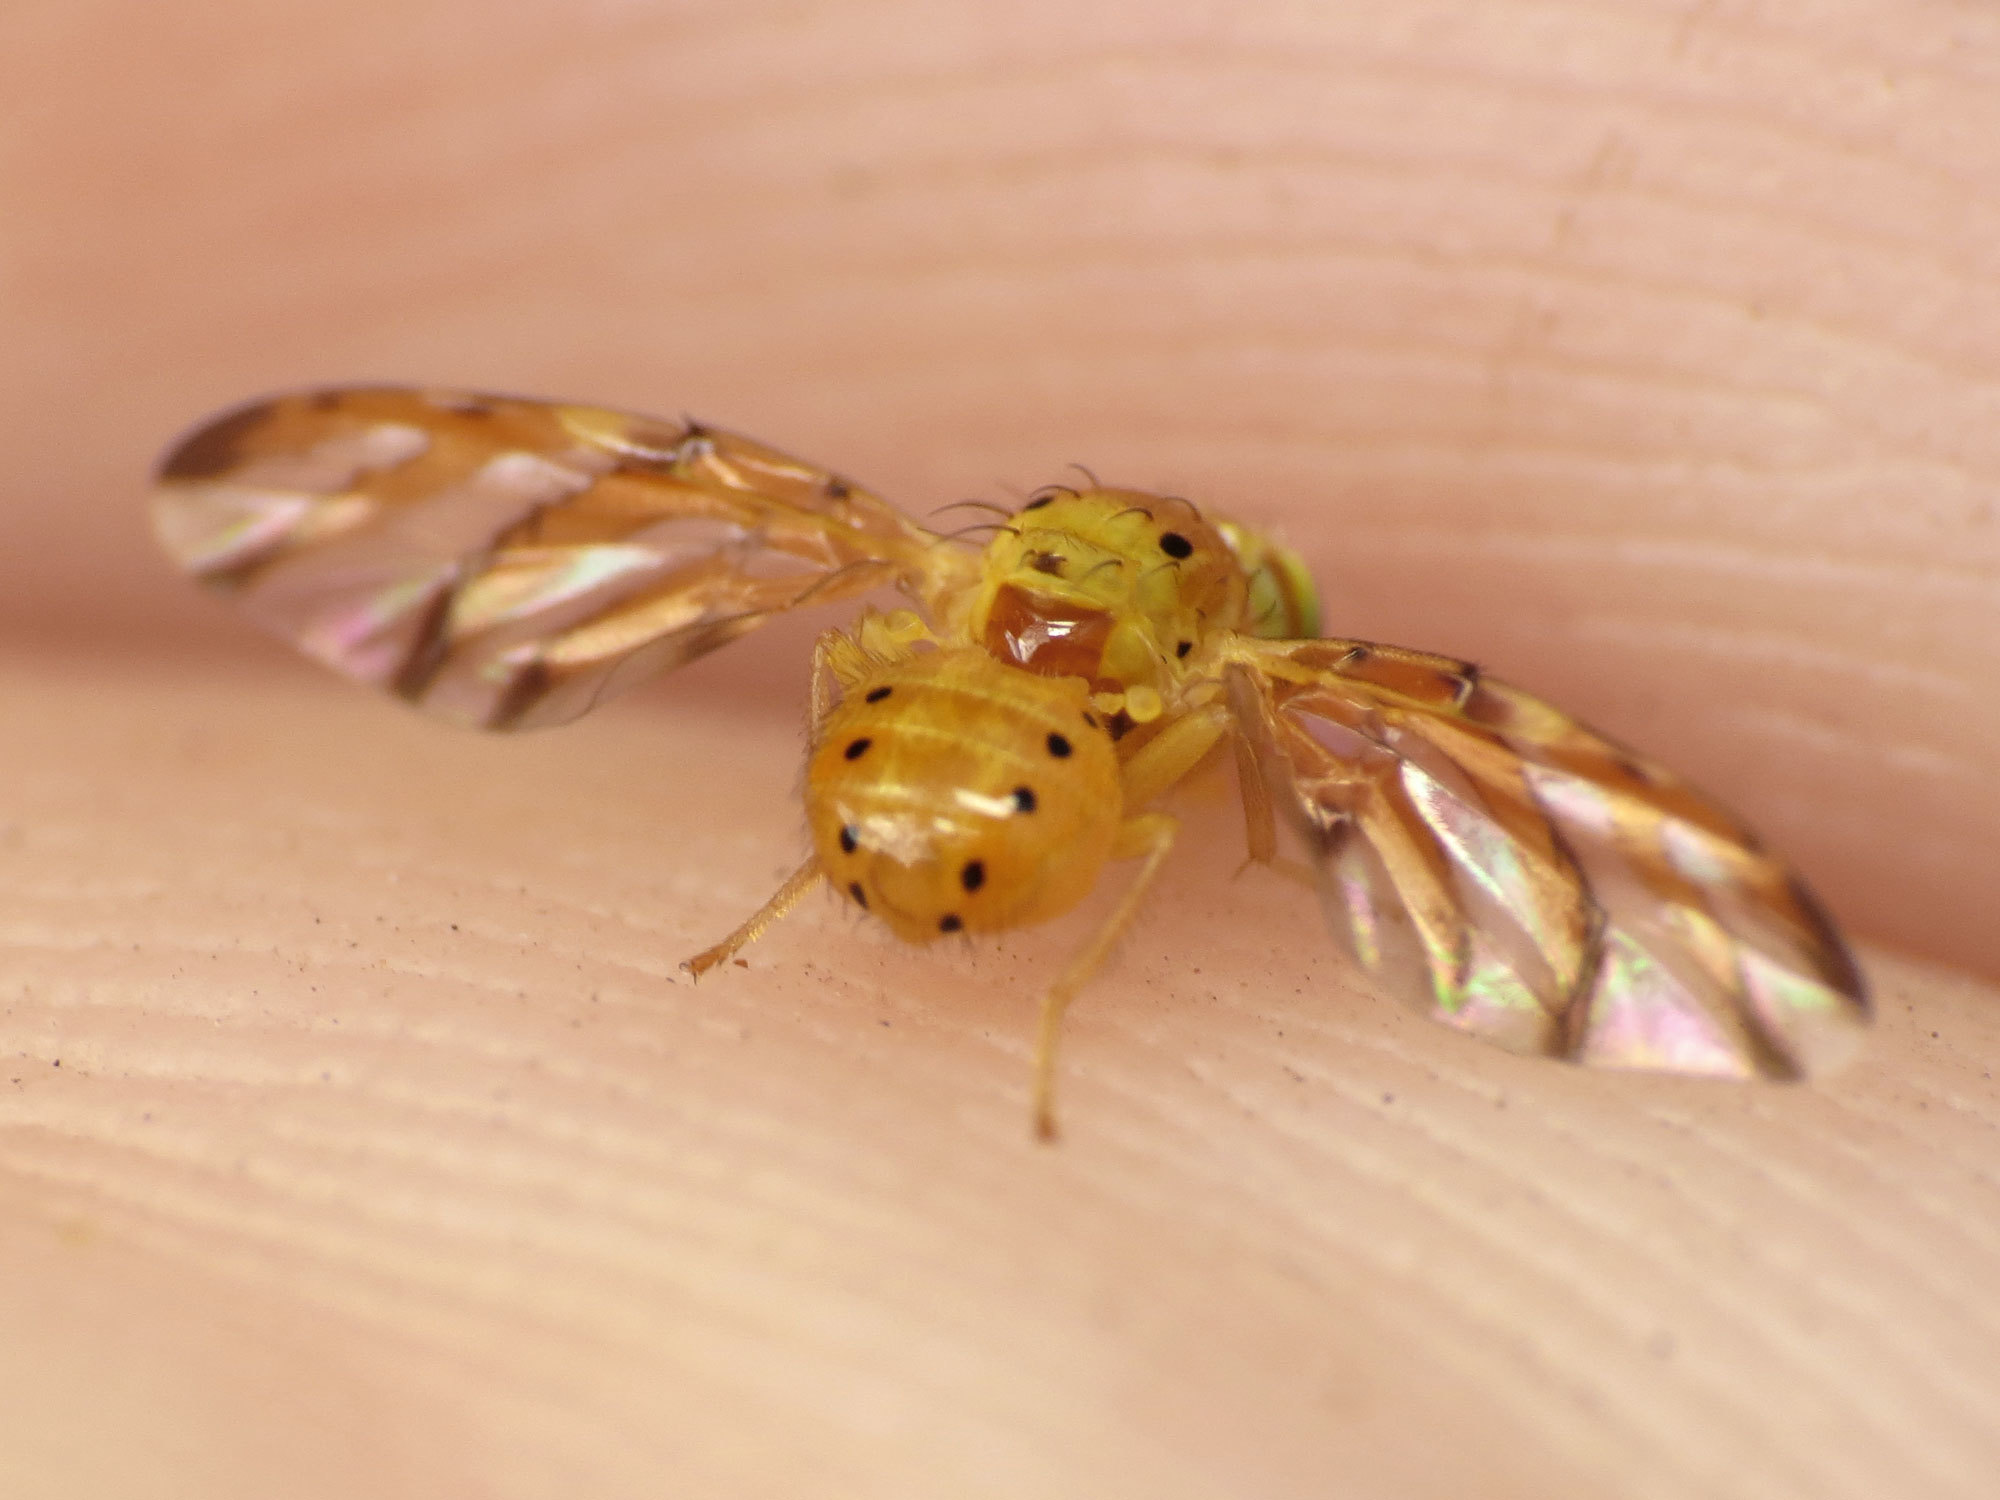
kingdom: Animalia
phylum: Arthropoda
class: Insecta
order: Diptera
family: Tephritidae
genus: Tomoplagia
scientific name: Tomoplagia cressoni
